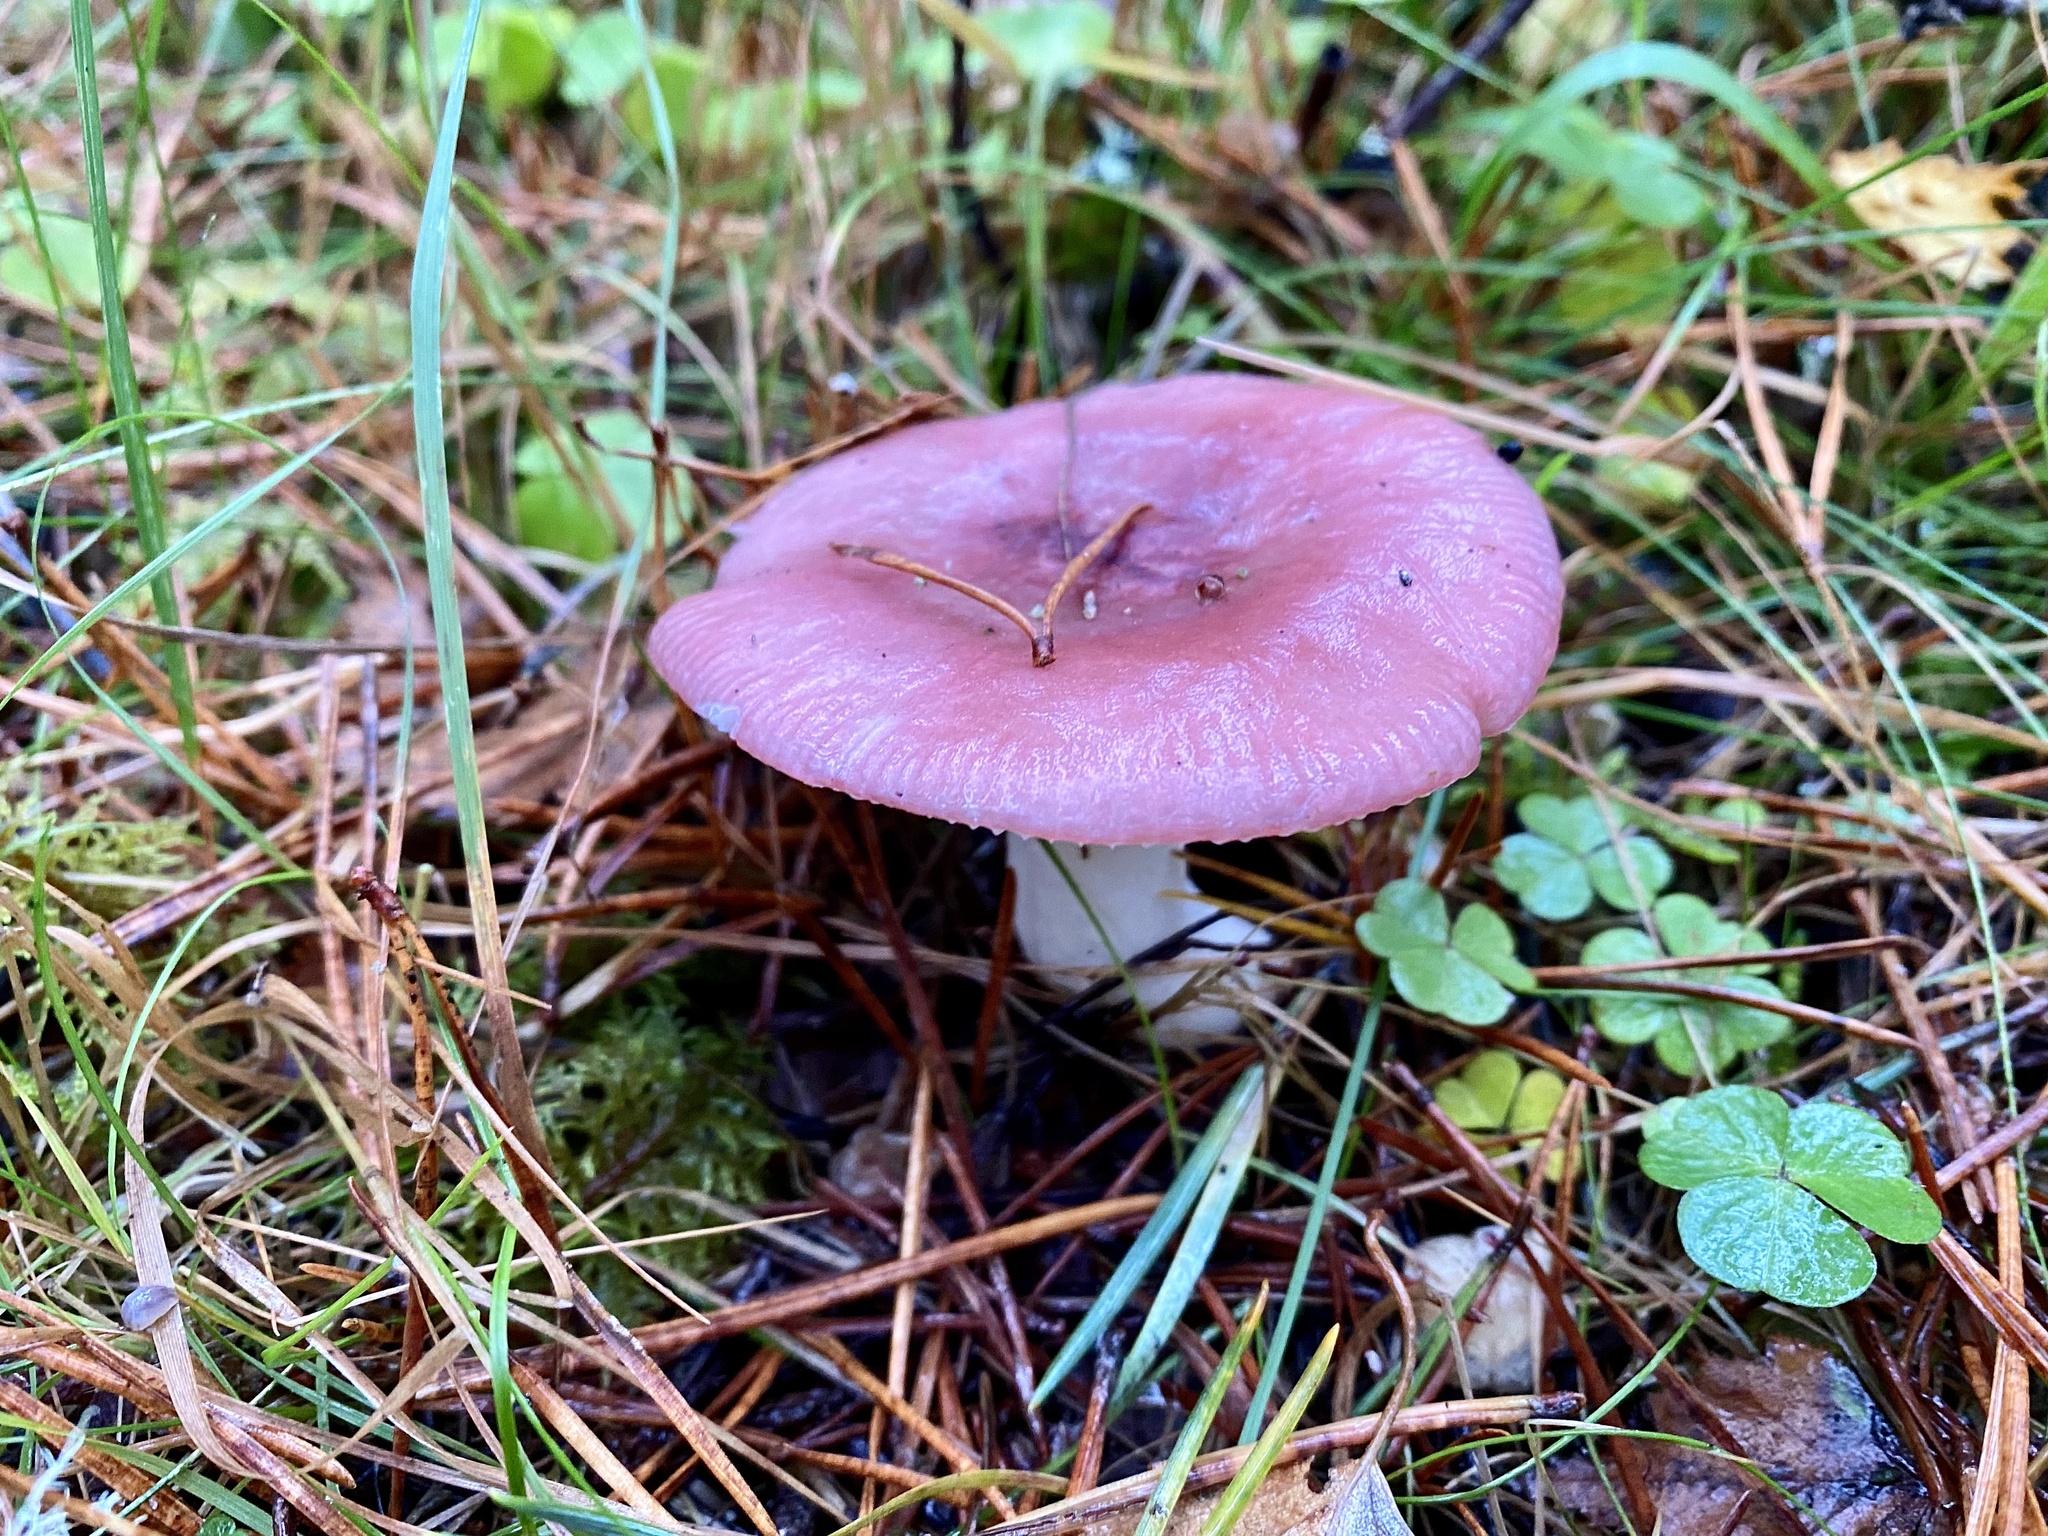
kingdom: Fungi
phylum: Basidiomycota
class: Agaricomycetes
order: Russulales
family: Russulaceae
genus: Russula
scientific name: Russula
